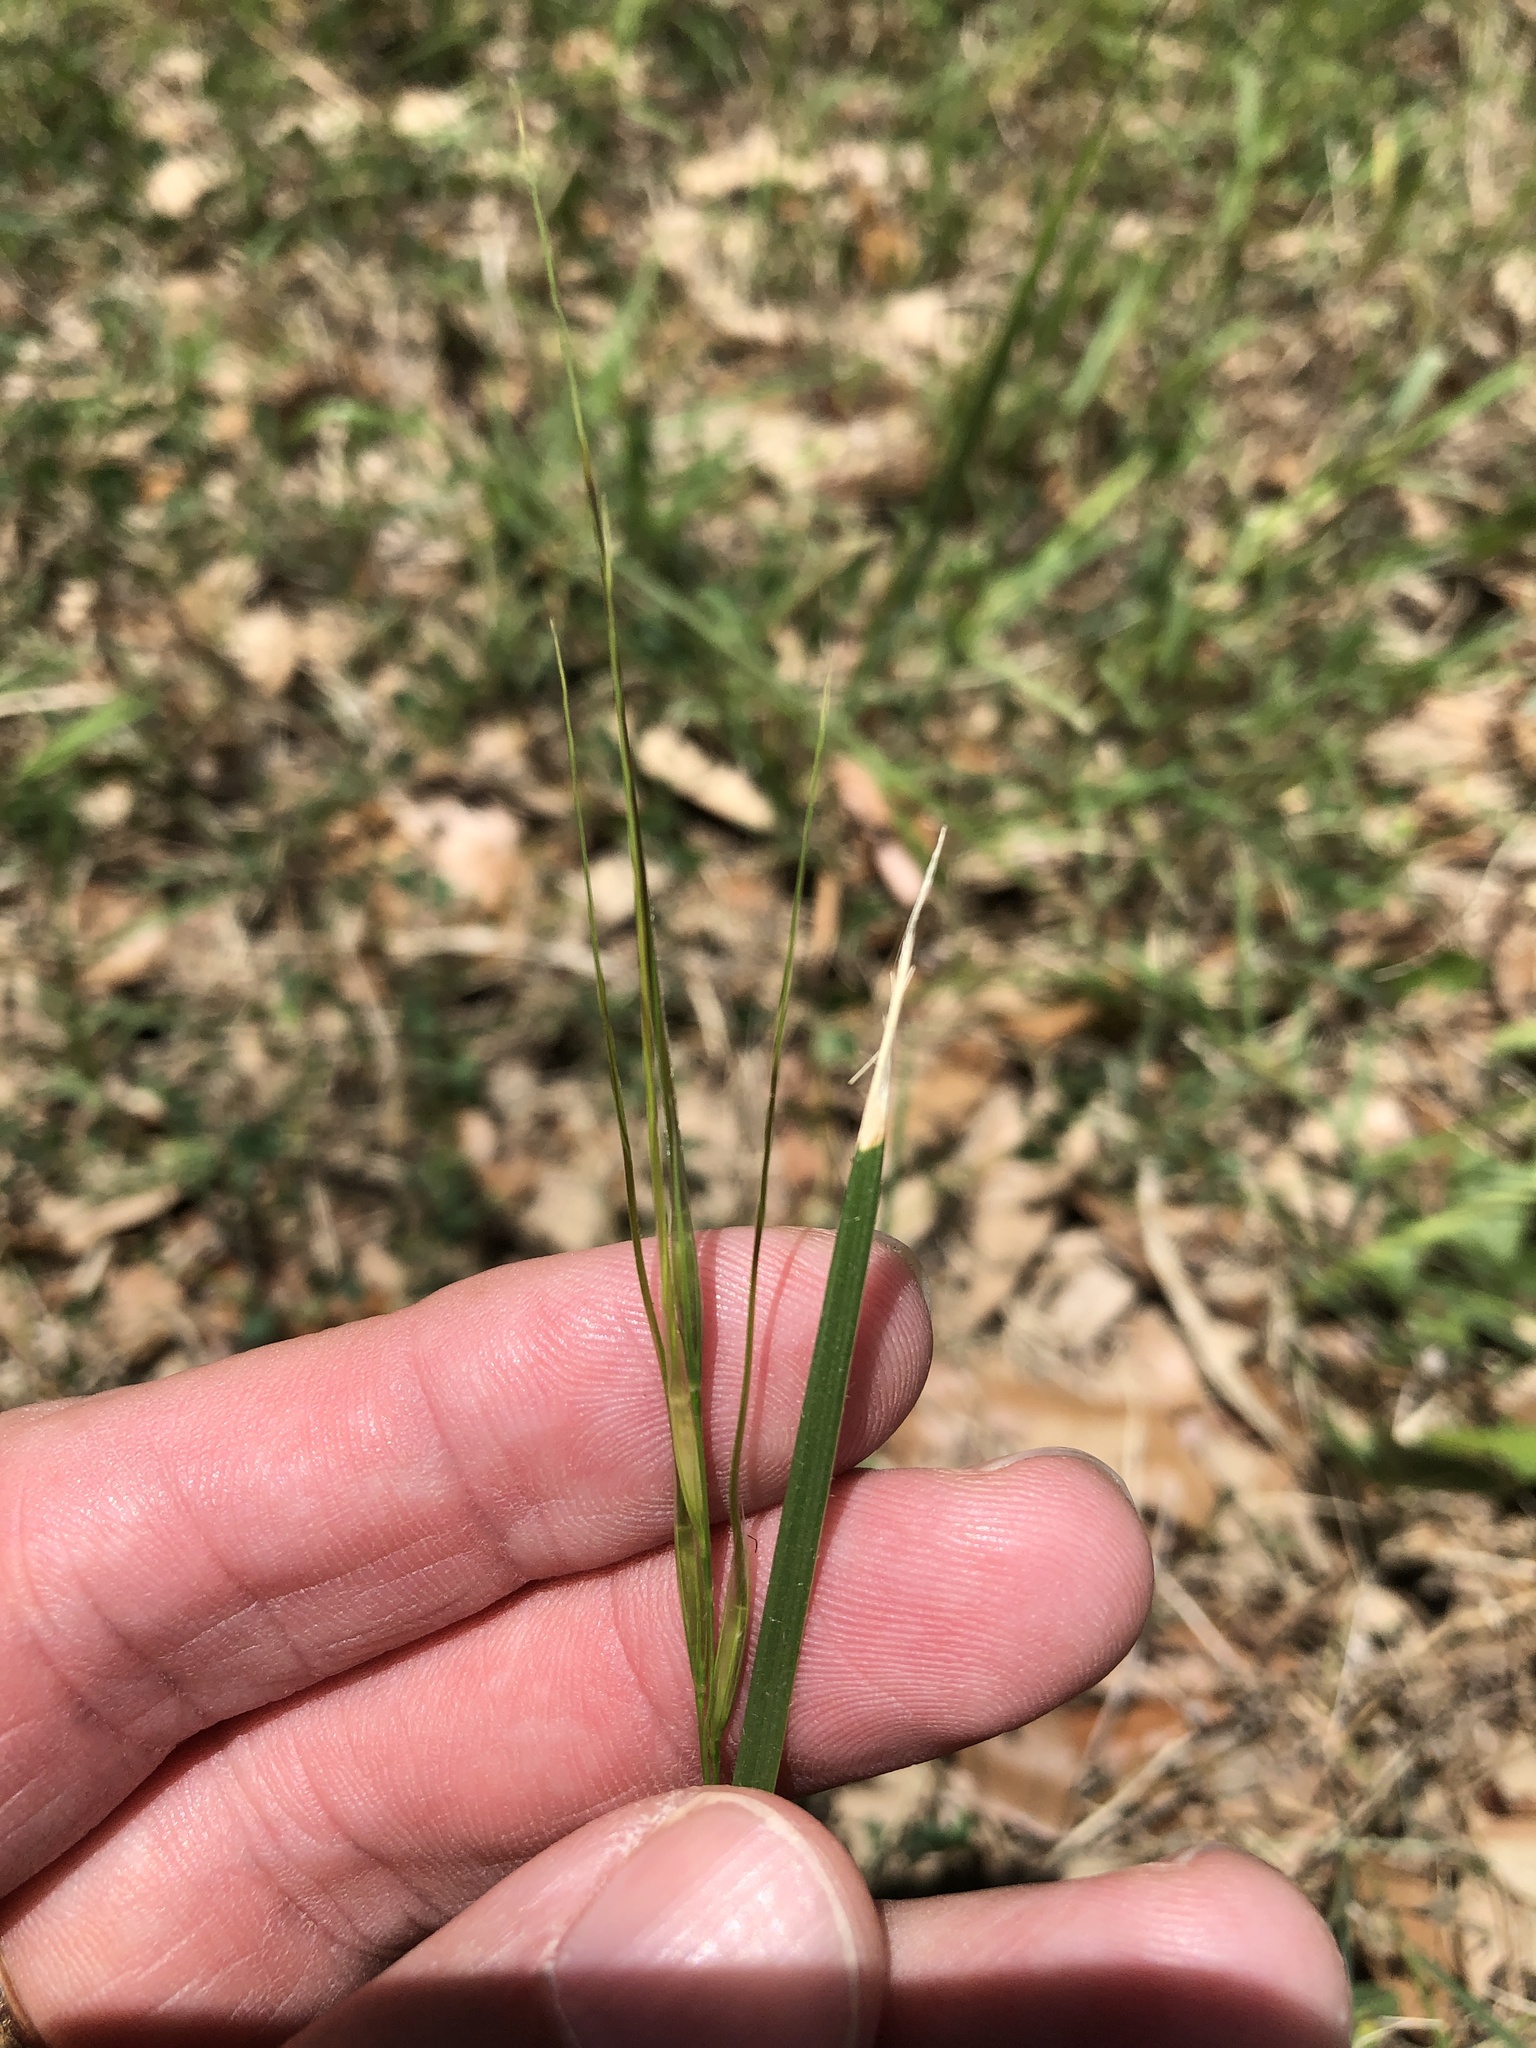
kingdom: Plantae
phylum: Tracheophyta
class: Liliopsida
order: Poales
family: Poaceae
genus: Nassella
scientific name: Nassella leucotricha
